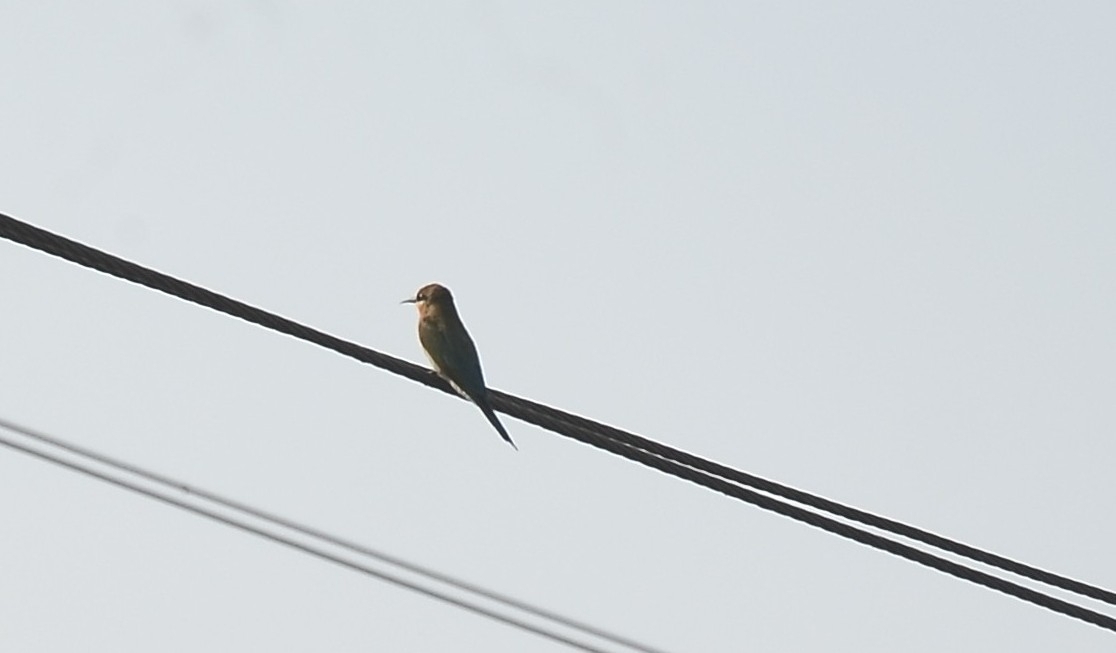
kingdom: Animalia
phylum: Chordata
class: Aves
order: Coraciiformes
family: Meropidae
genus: Merops
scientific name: Merops philippinus
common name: Blue-tailed bee-eater
